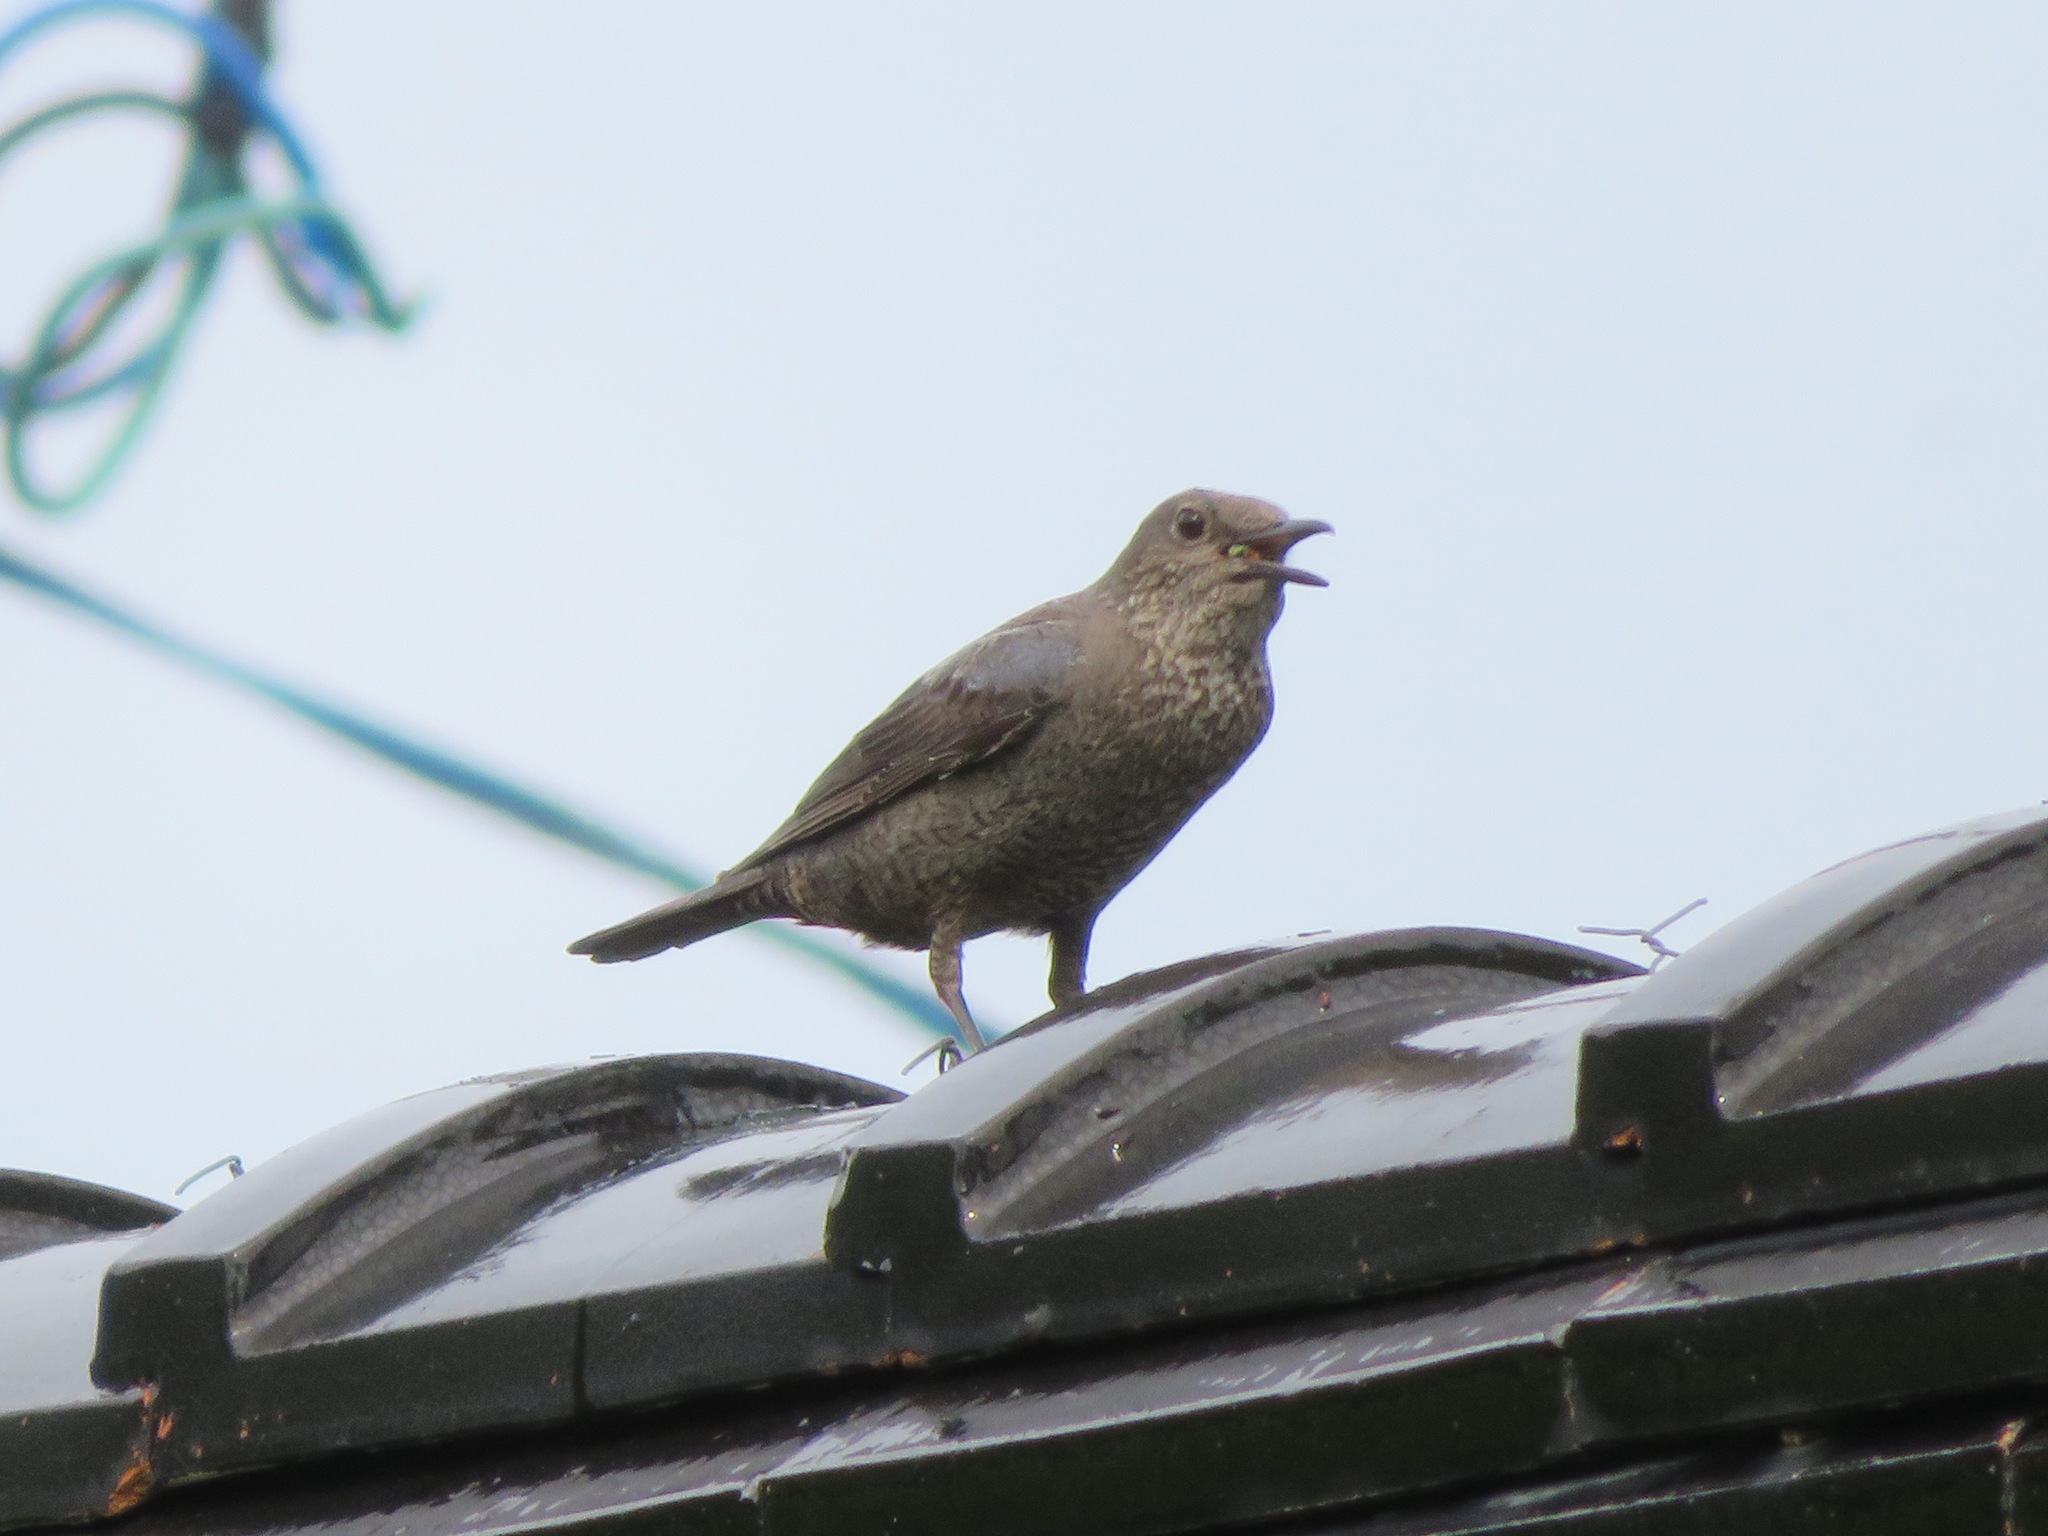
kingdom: Animalia
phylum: Chordata
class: Aves
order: Passeriformes
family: Muscicapidae
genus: Monticola
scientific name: Monticola solitarius
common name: Blue rock thrush
